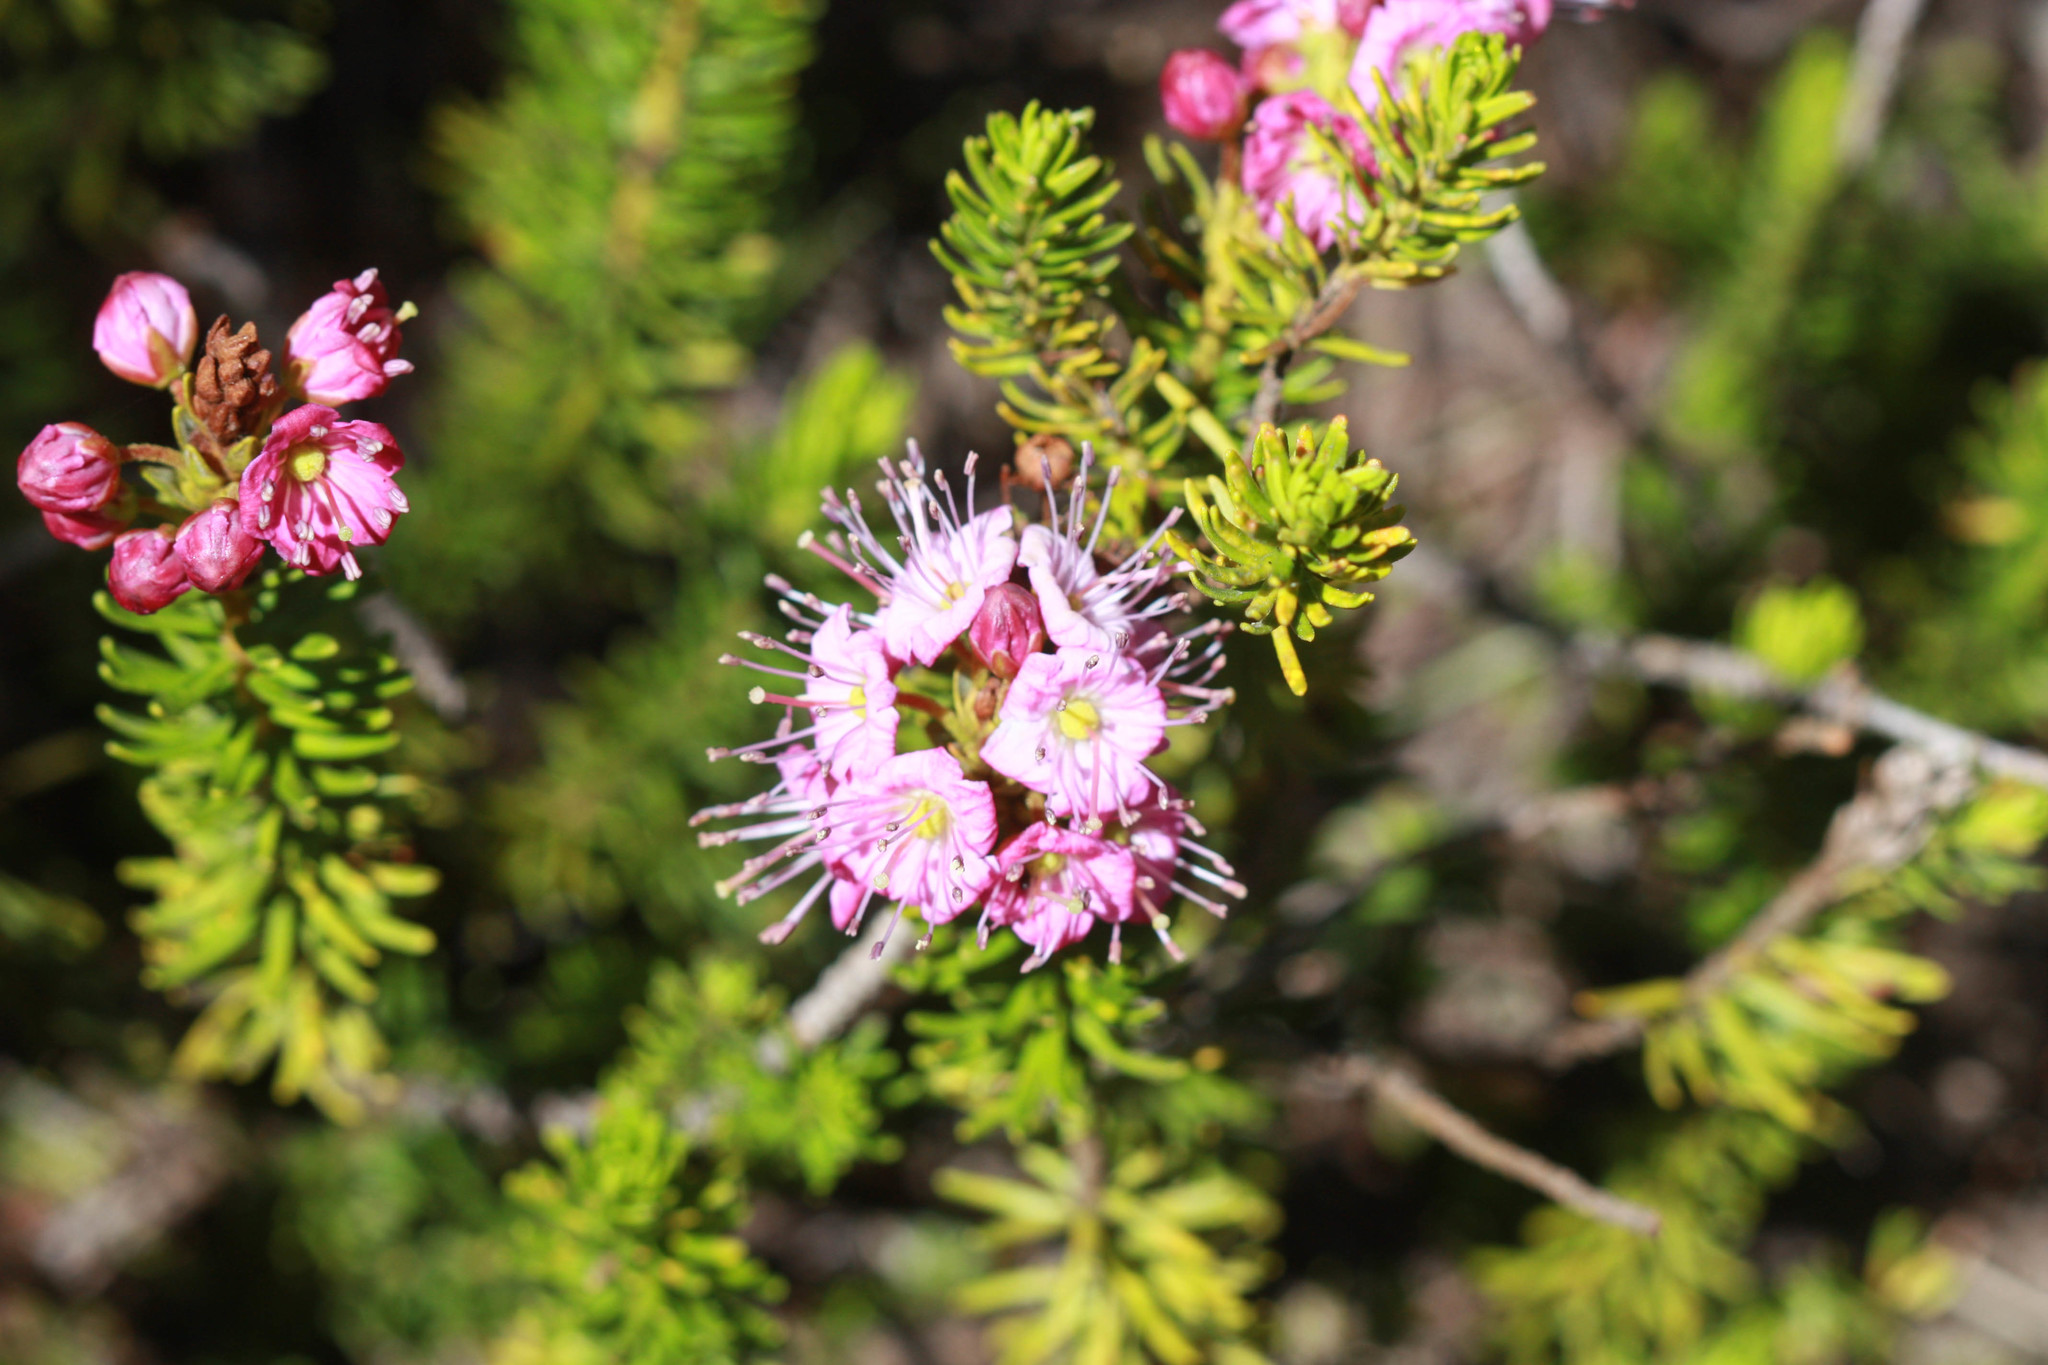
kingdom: Plantae
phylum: Tracheophyta
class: Magnoliopsida
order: Ericales
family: Ericaceae
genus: Phyllodoce
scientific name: Phyllodoce breweri
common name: Brewer's mountain-heather
